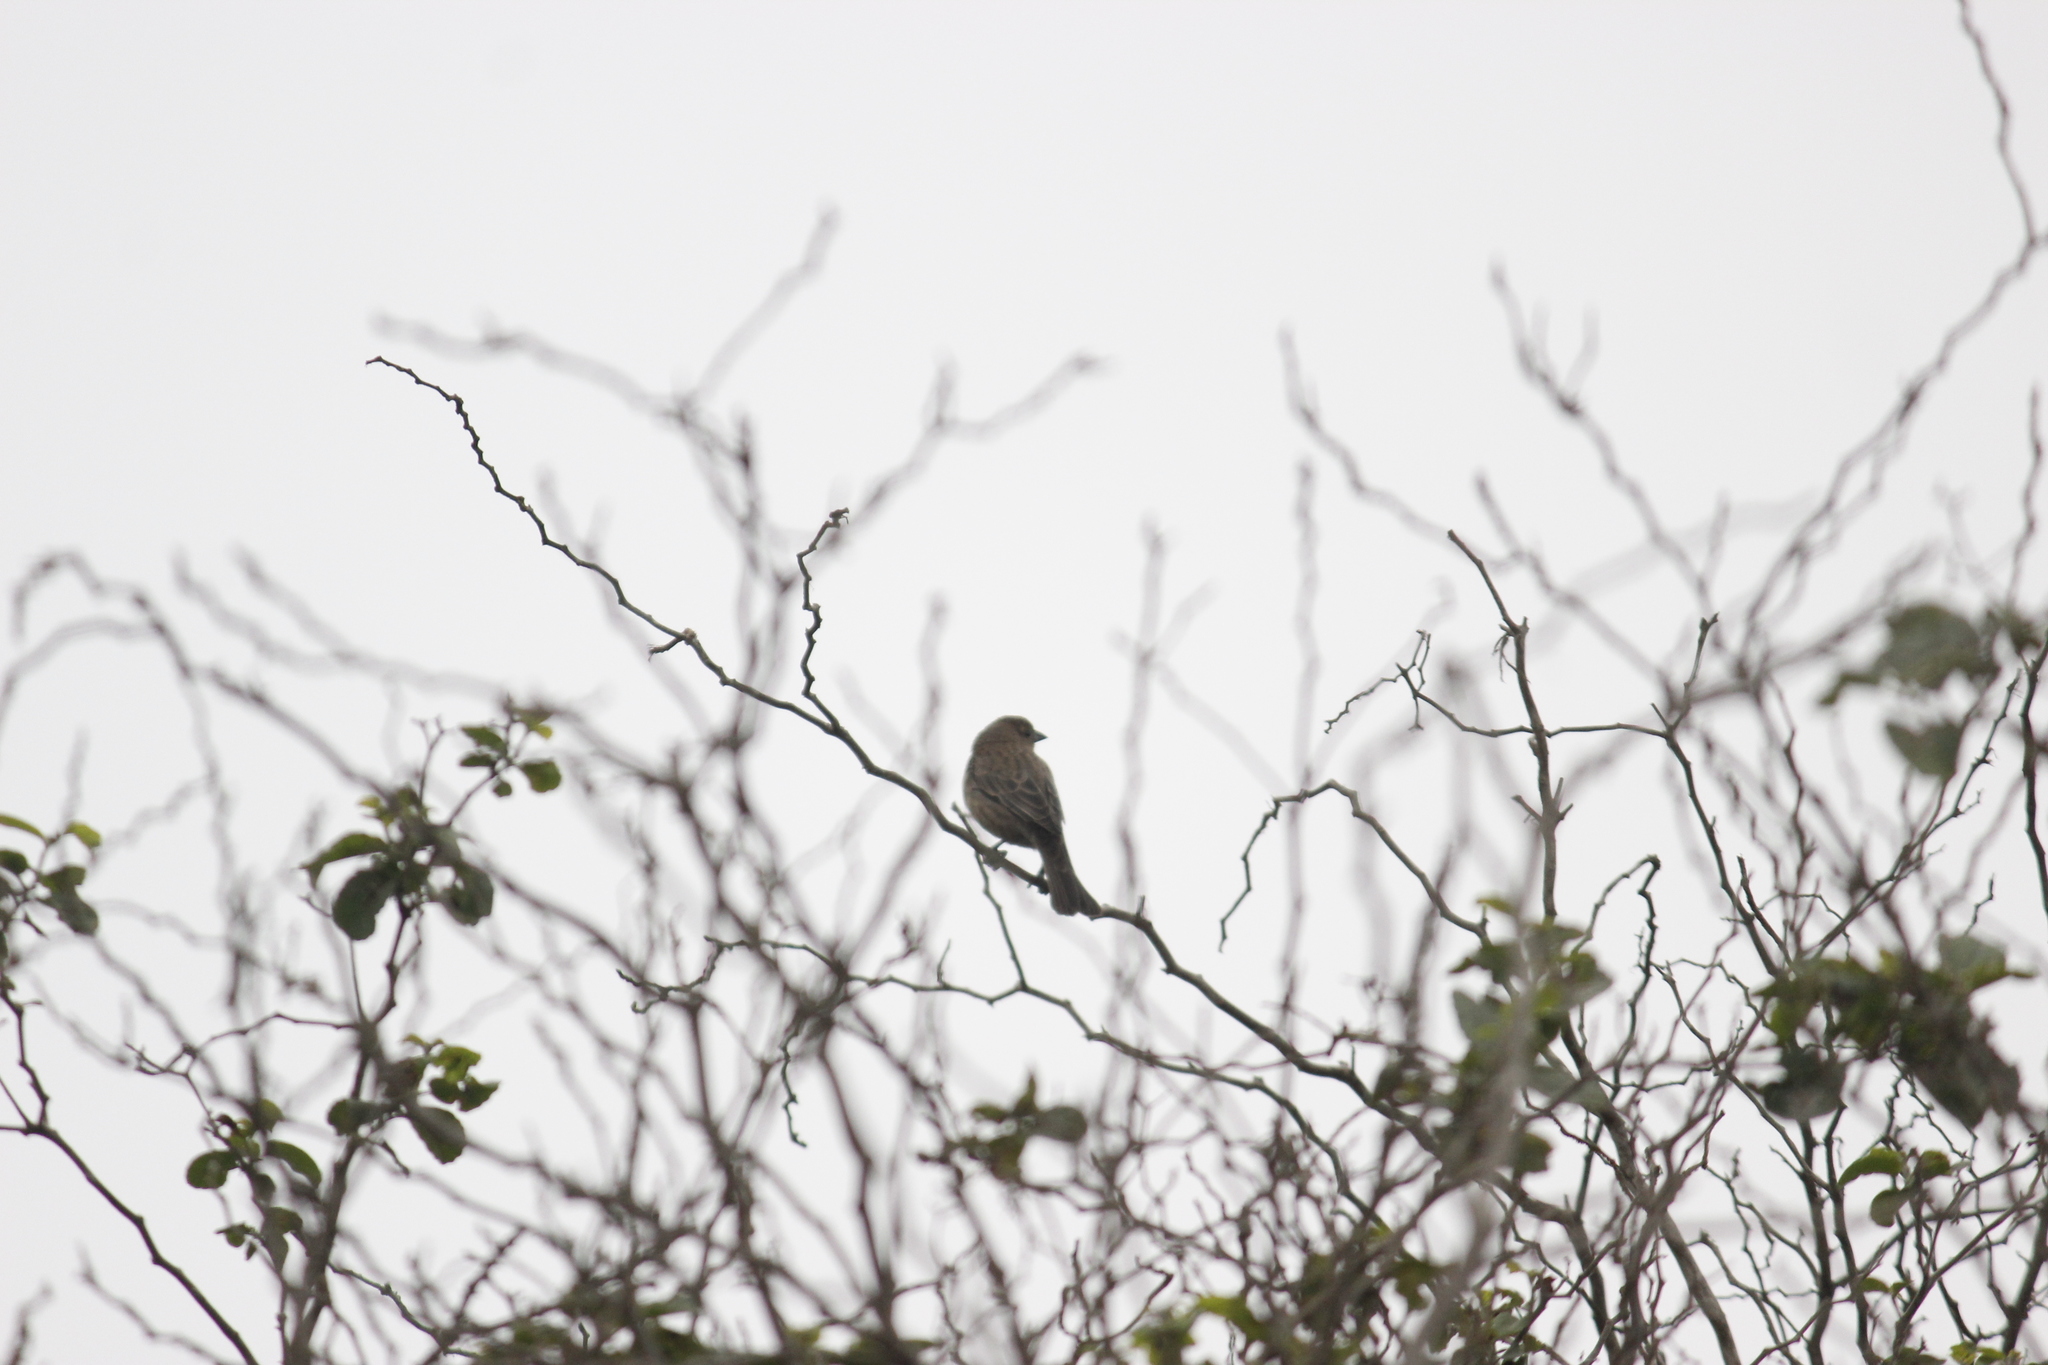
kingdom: Animalia
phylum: Chordata
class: Aves
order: Passeriformes
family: Icteridae
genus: Molothrus
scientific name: Molothrus bonariensis
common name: Shiny cowbird
